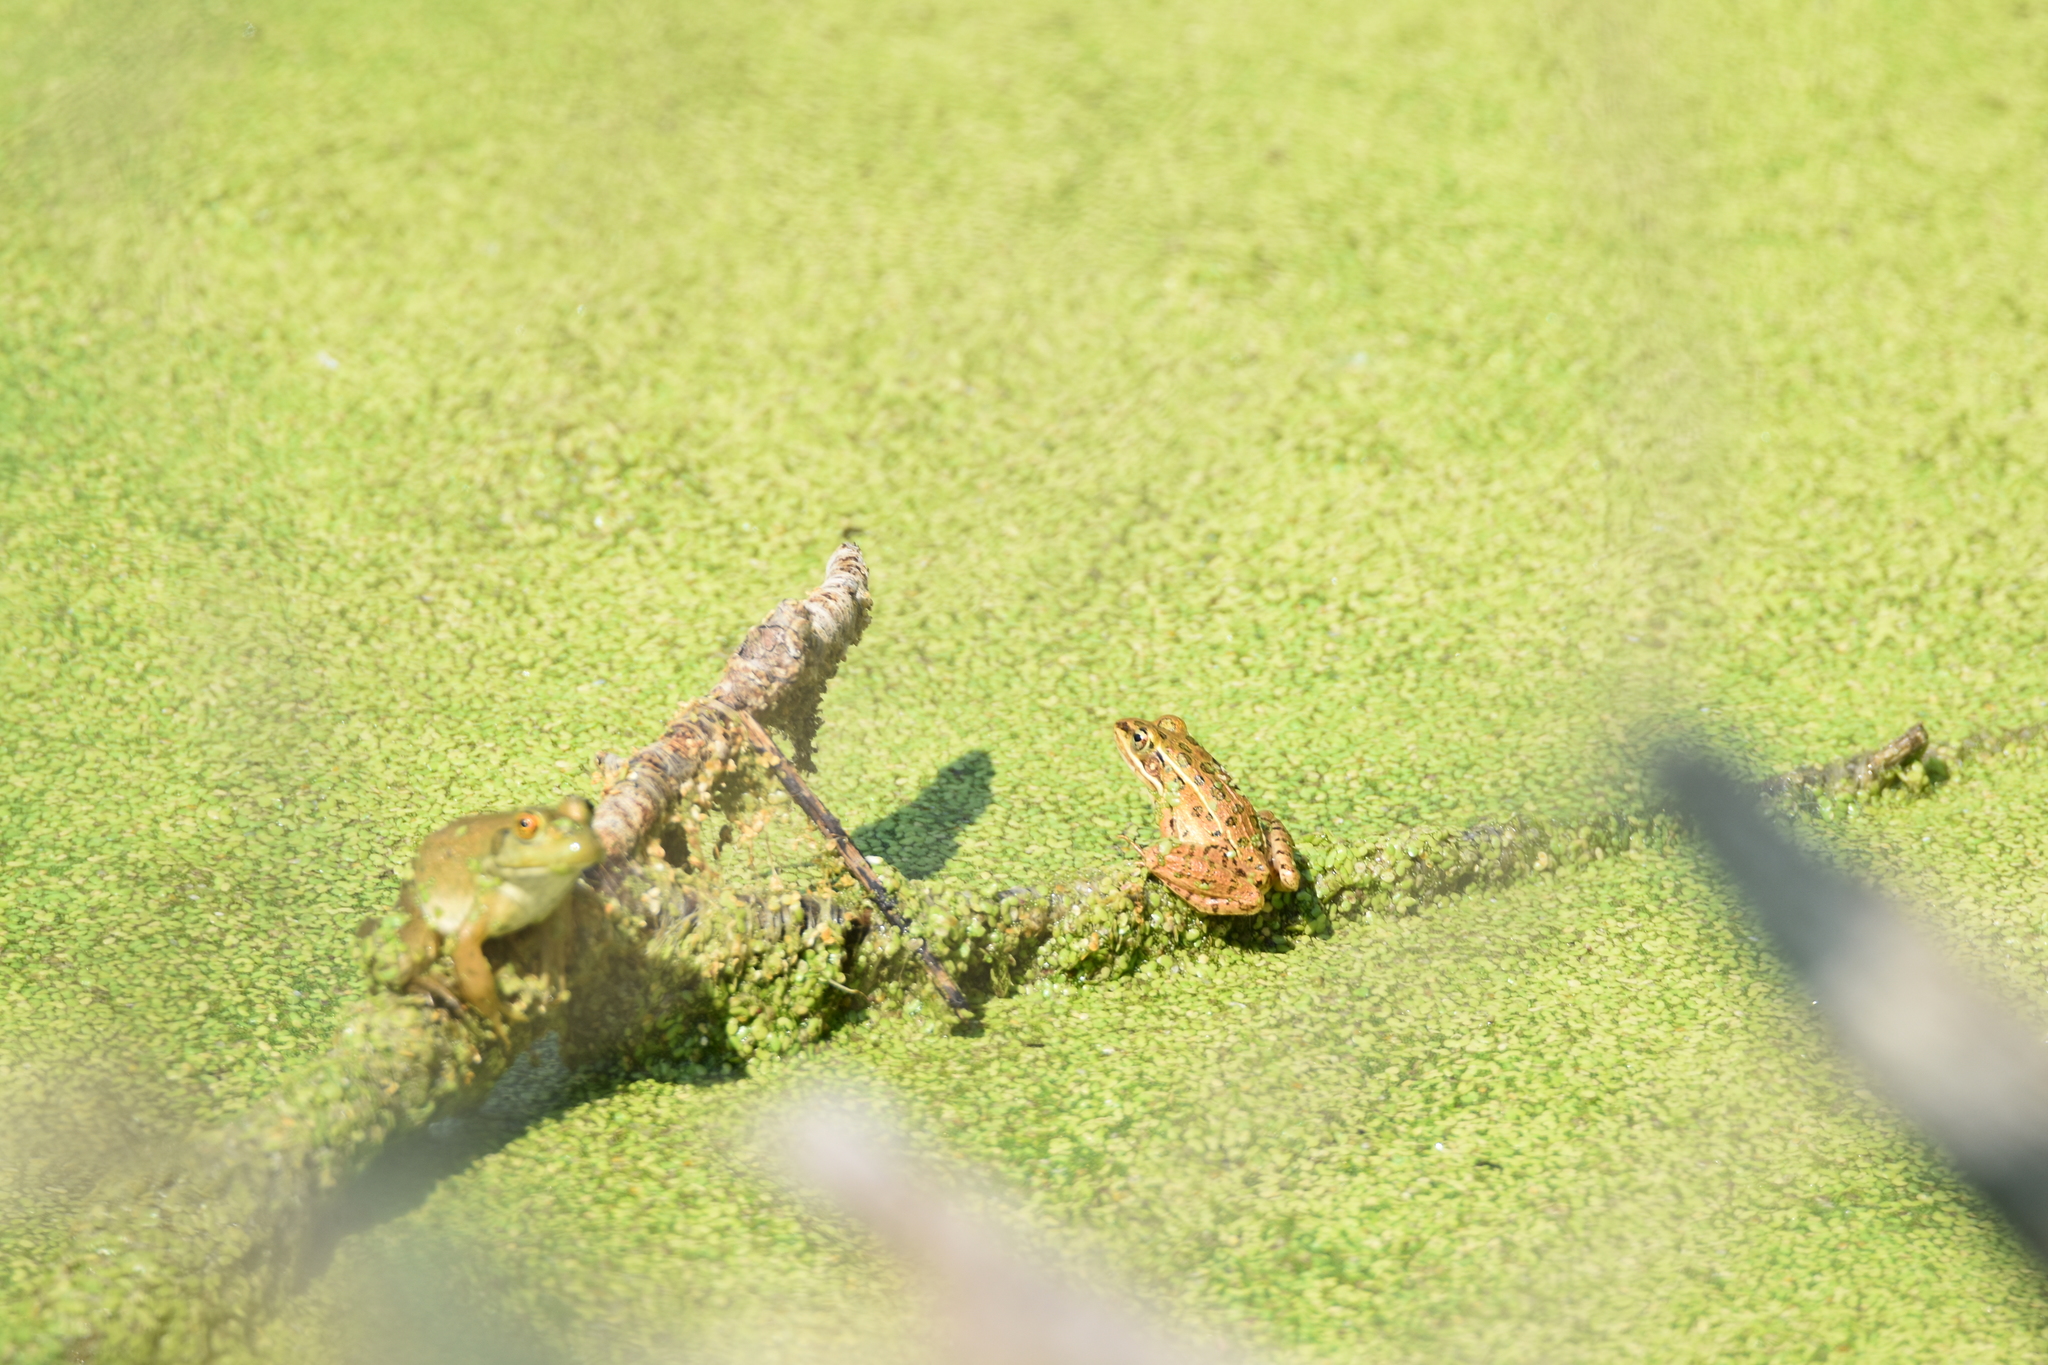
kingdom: Animalia
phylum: Chordata
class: Amphibia
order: Anura
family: Ranidae
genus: Lithobates
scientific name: Lithobates blairi
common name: Plains leopard frog
